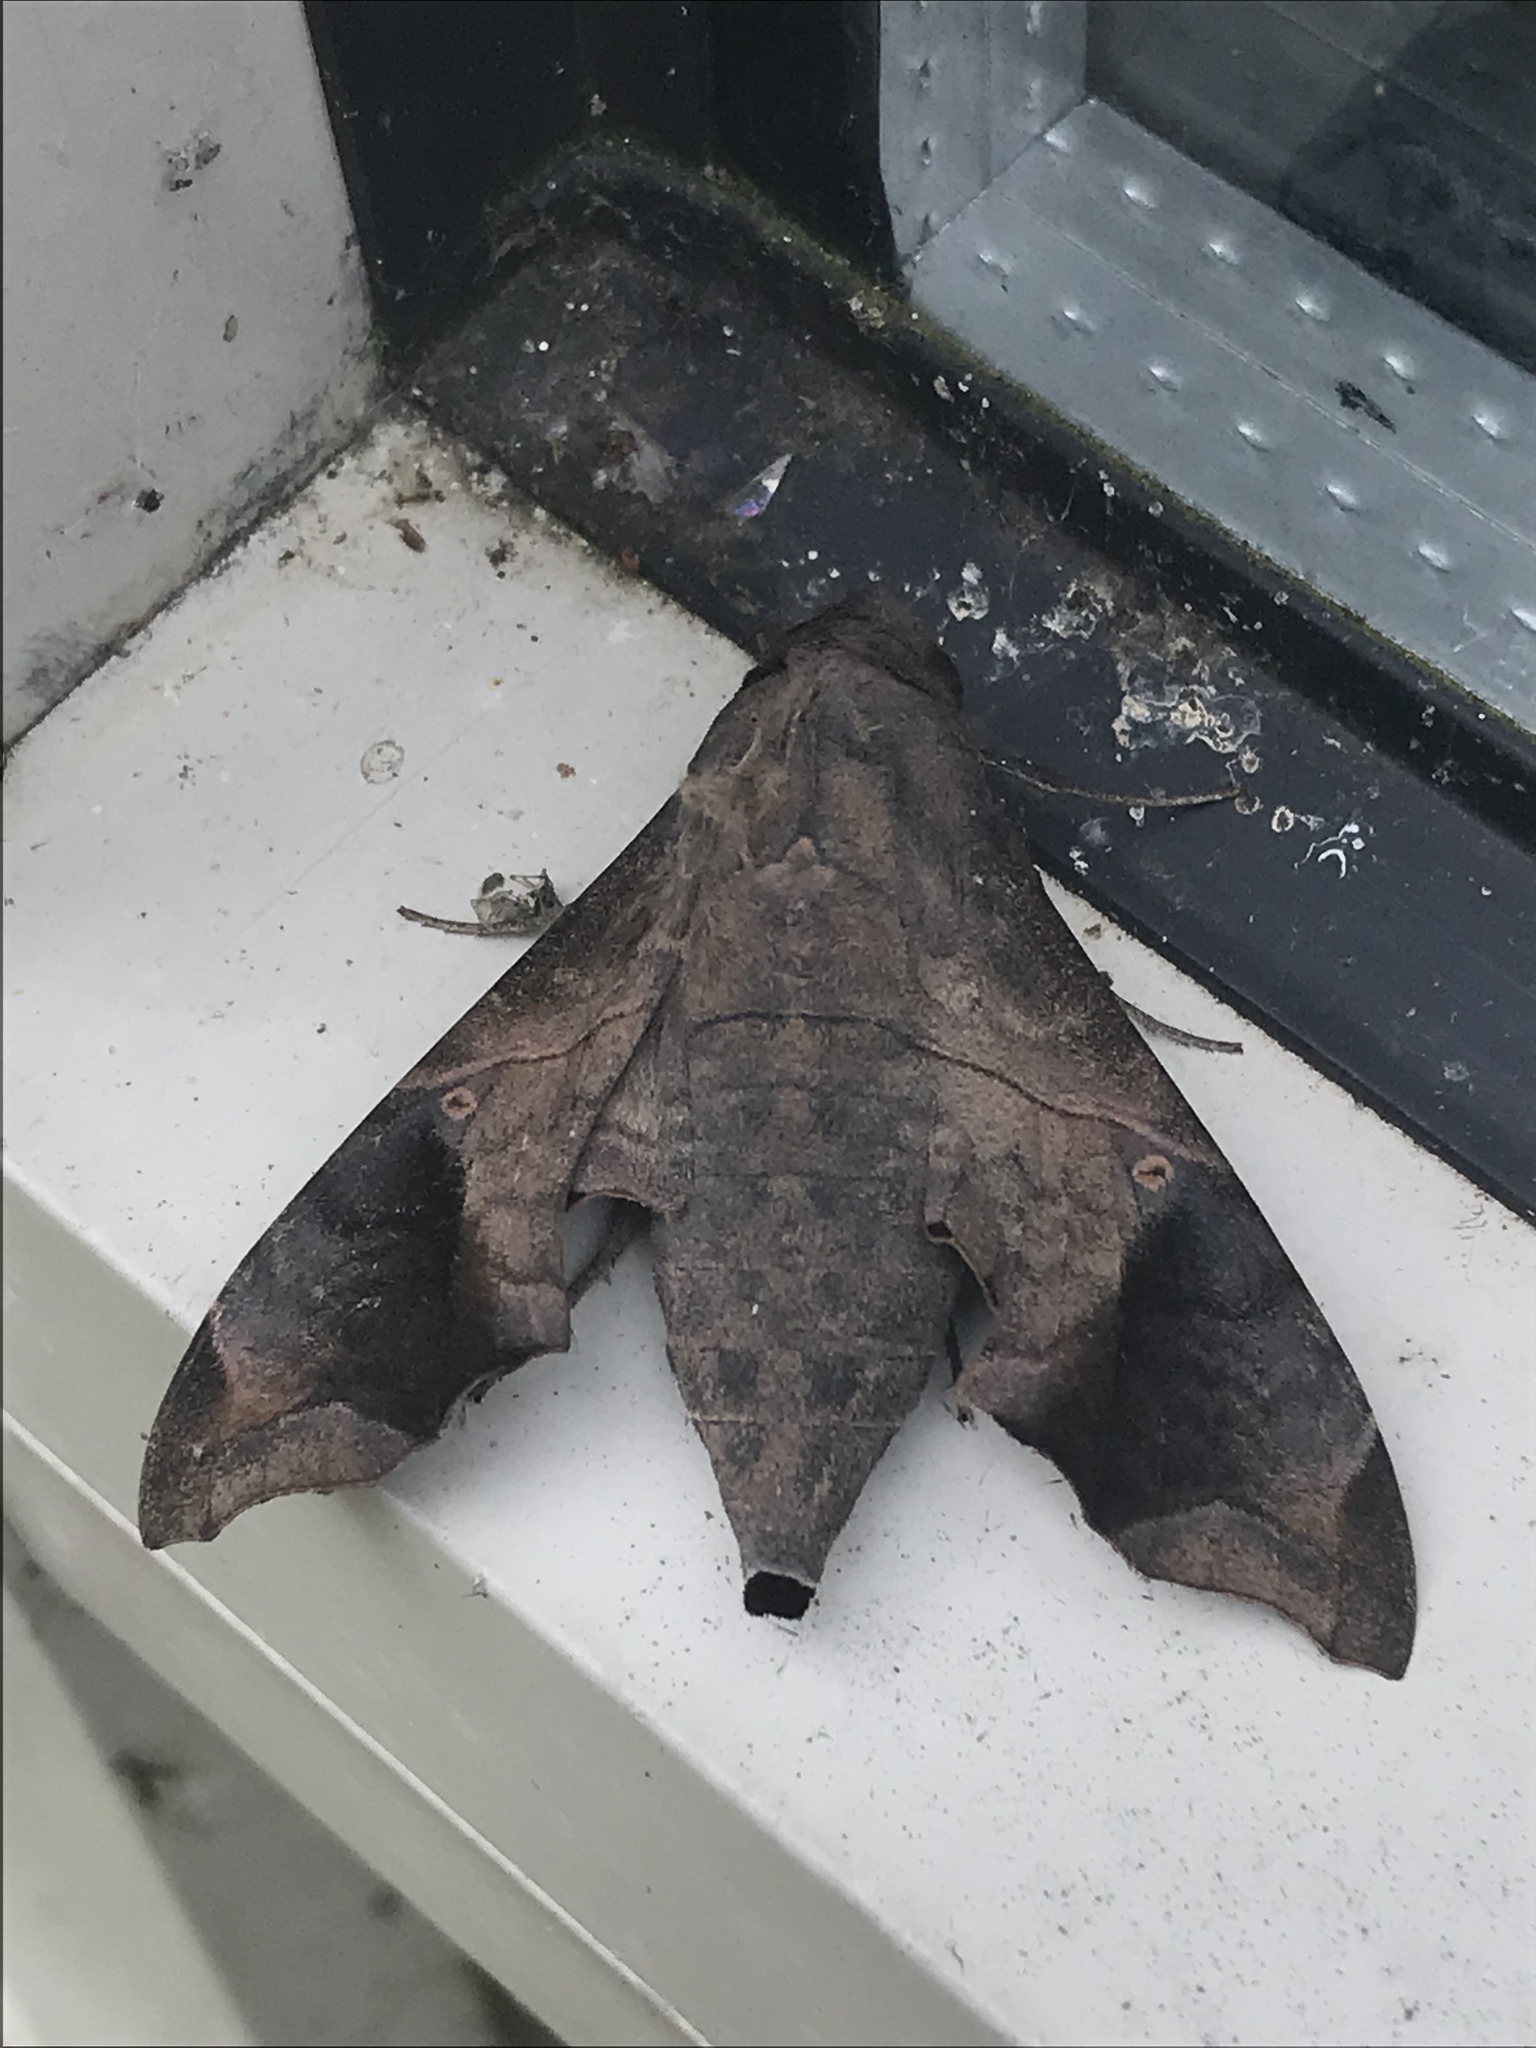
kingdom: Animalia
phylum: Arthropoda
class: Insecta
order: Lepidoptera
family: Sphingidae
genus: Enyo
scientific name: Enyo lugubris
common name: Mournful sphinx
